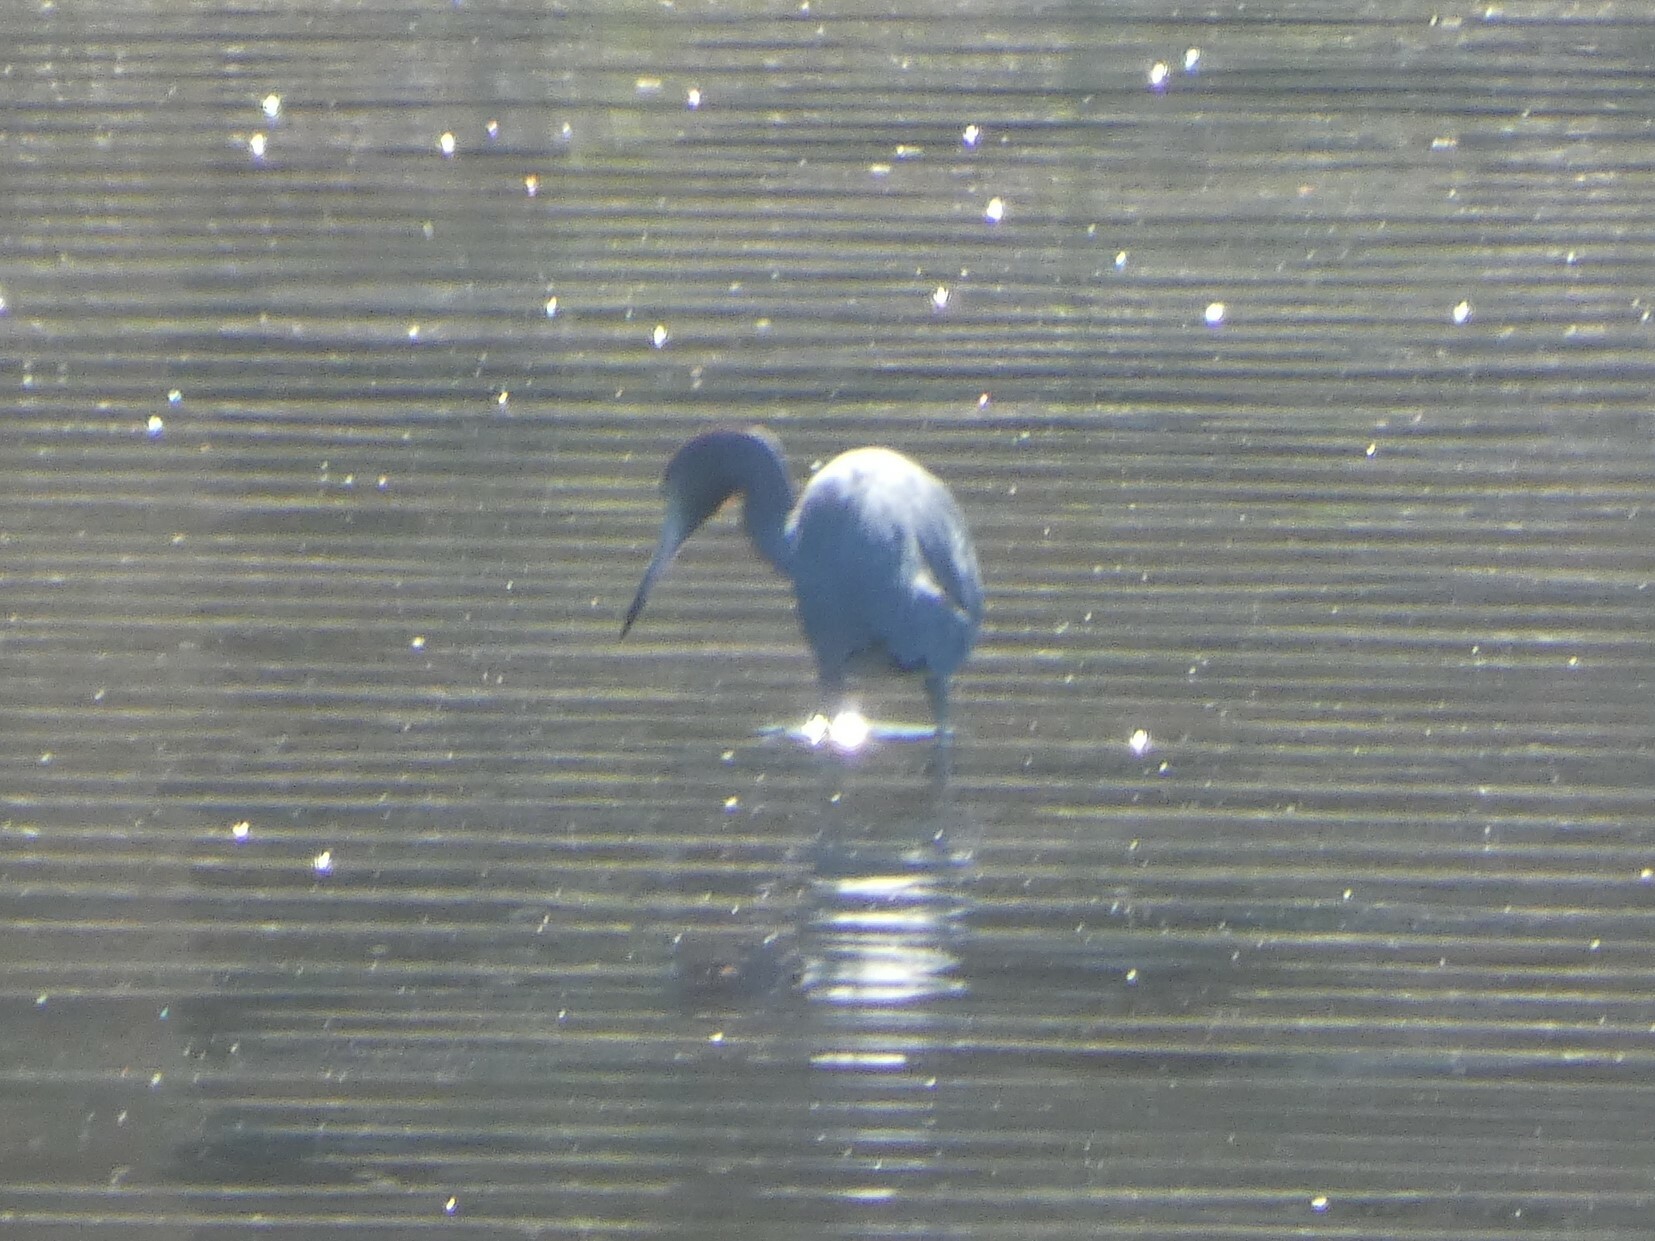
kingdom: Animalia
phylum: Chordata
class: Aves
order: Pelecaniformes
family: Ardeidae
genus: Egretta
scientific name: Egretta caerulea
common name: Little blue heron
